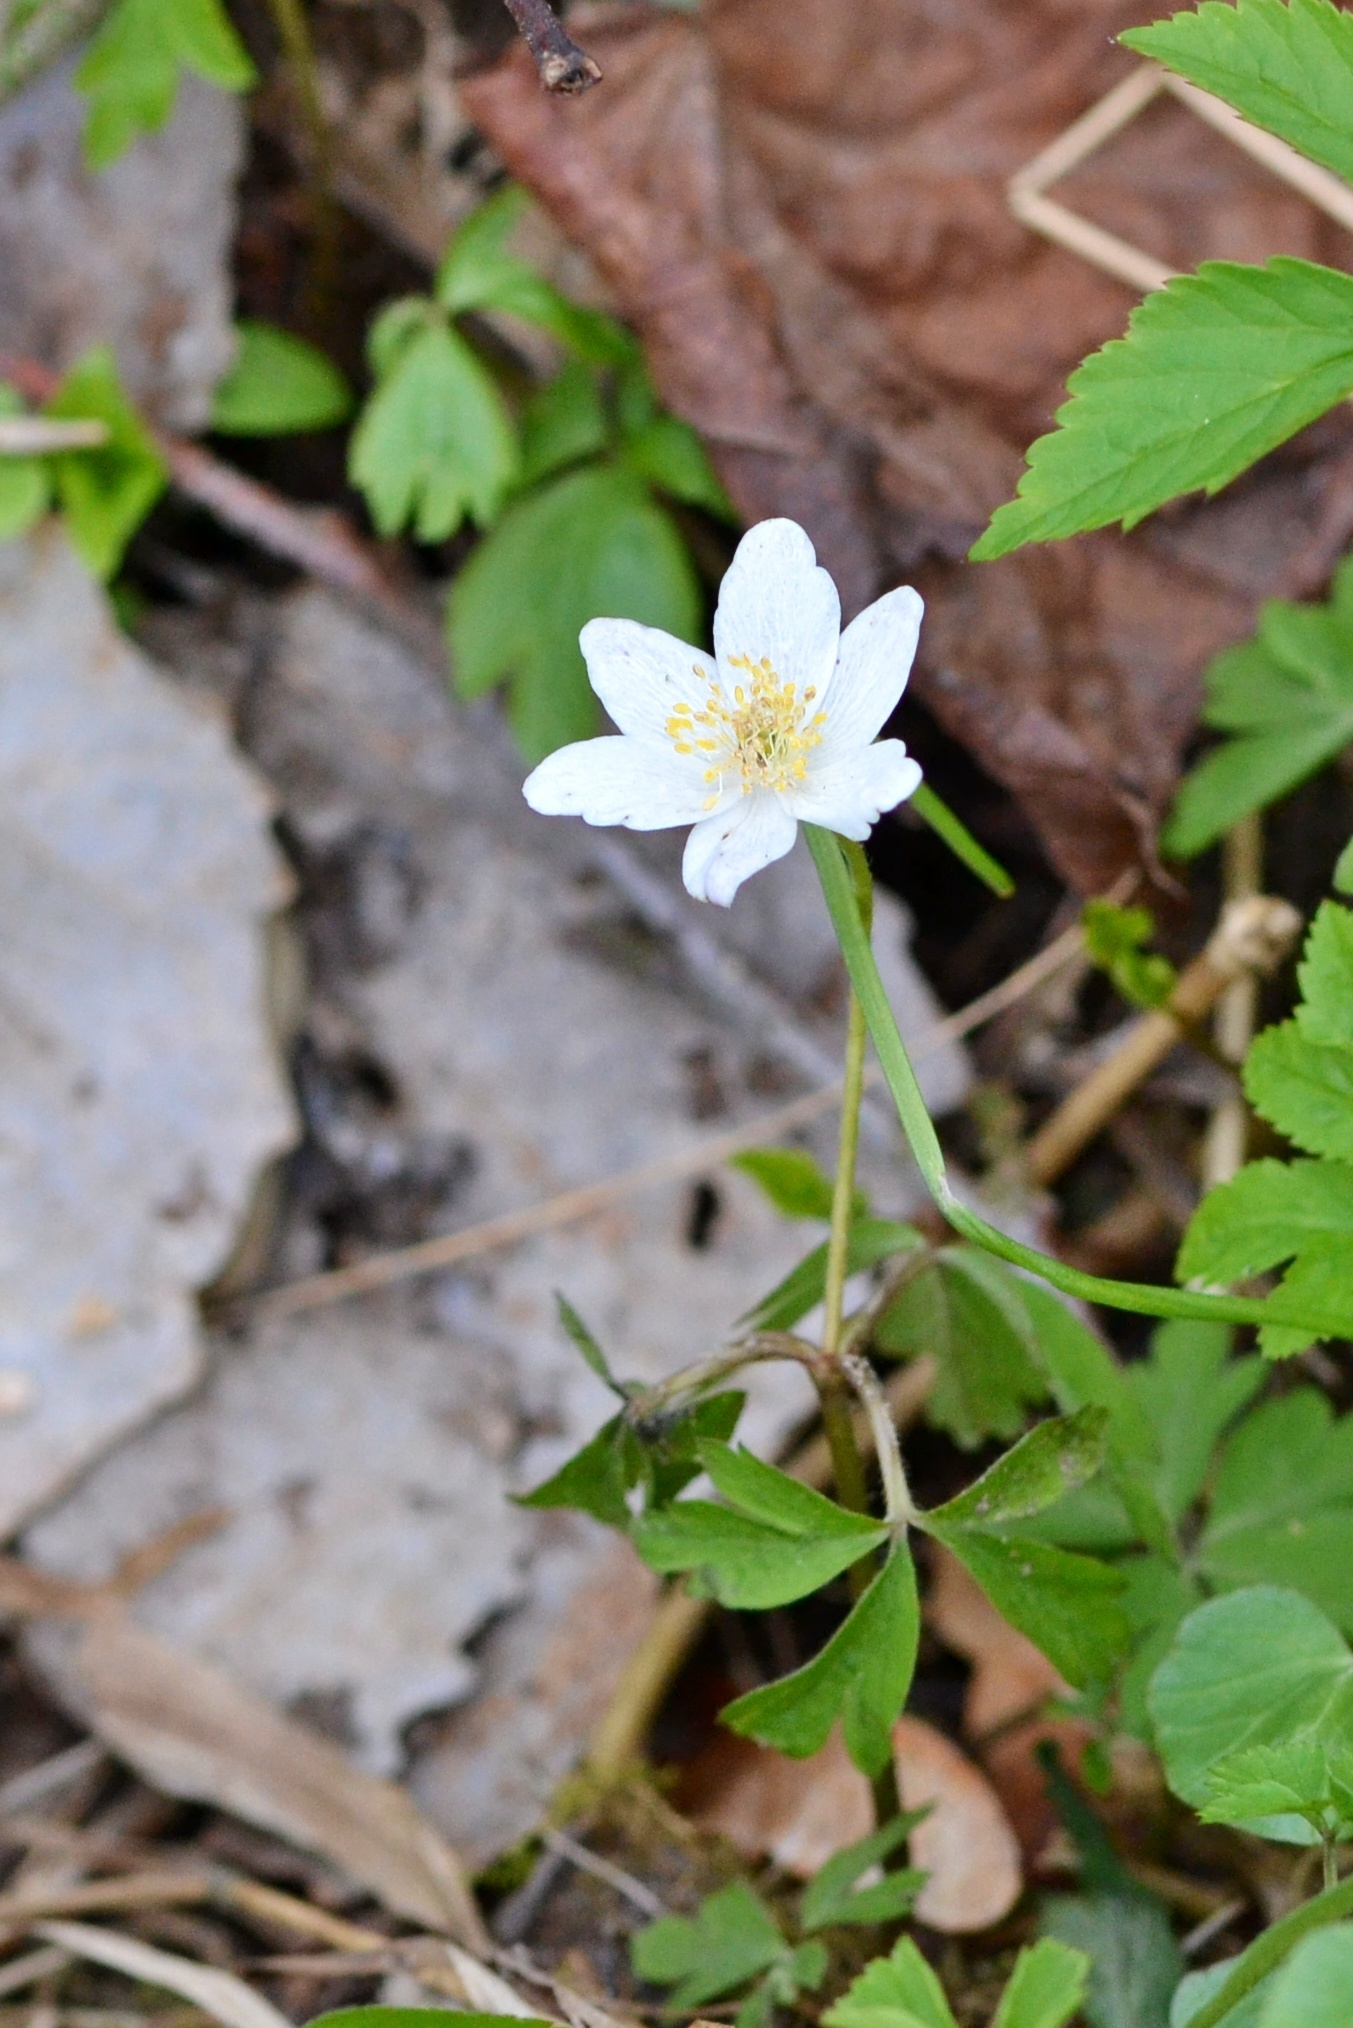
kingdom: Plantae
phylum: Tracheophyta
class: Magnoliopsida
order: Ranunculales
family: Ranunculaceae
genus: Anemone
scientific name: Anemone nemorosa
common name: Wood anemone
